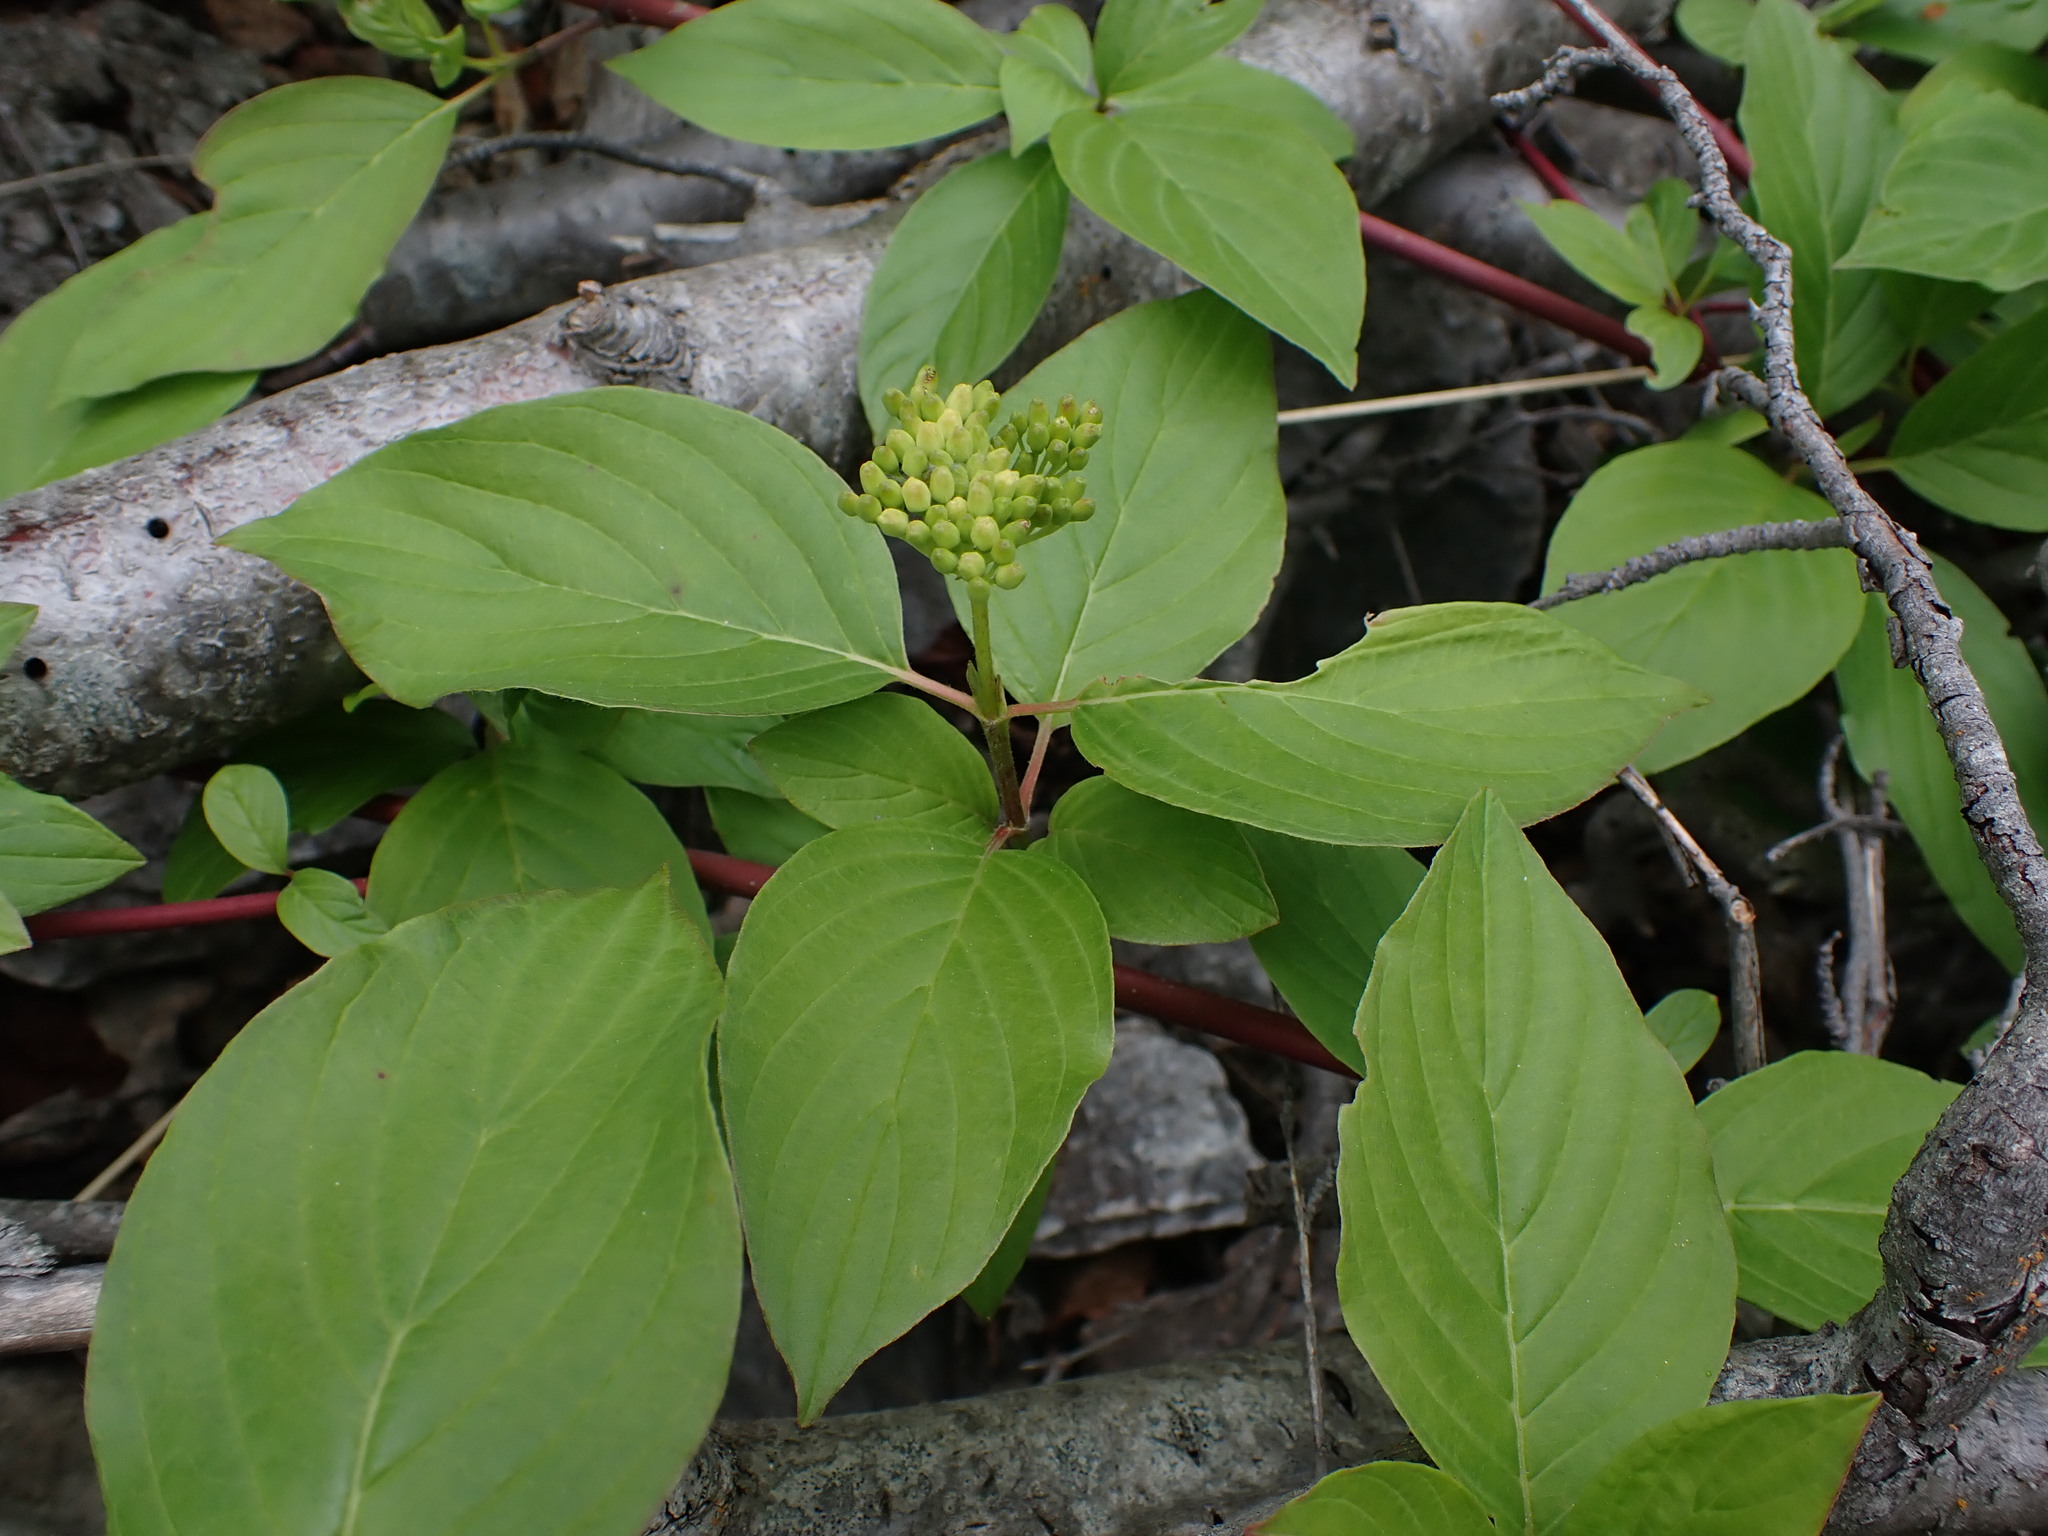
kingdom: Plantae
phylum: Tracheophyta
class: Magnoliopsida
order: Cornales
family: Cornaceae
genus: Cornus
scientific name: Cornus sericea
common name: Red-osier dogwood
